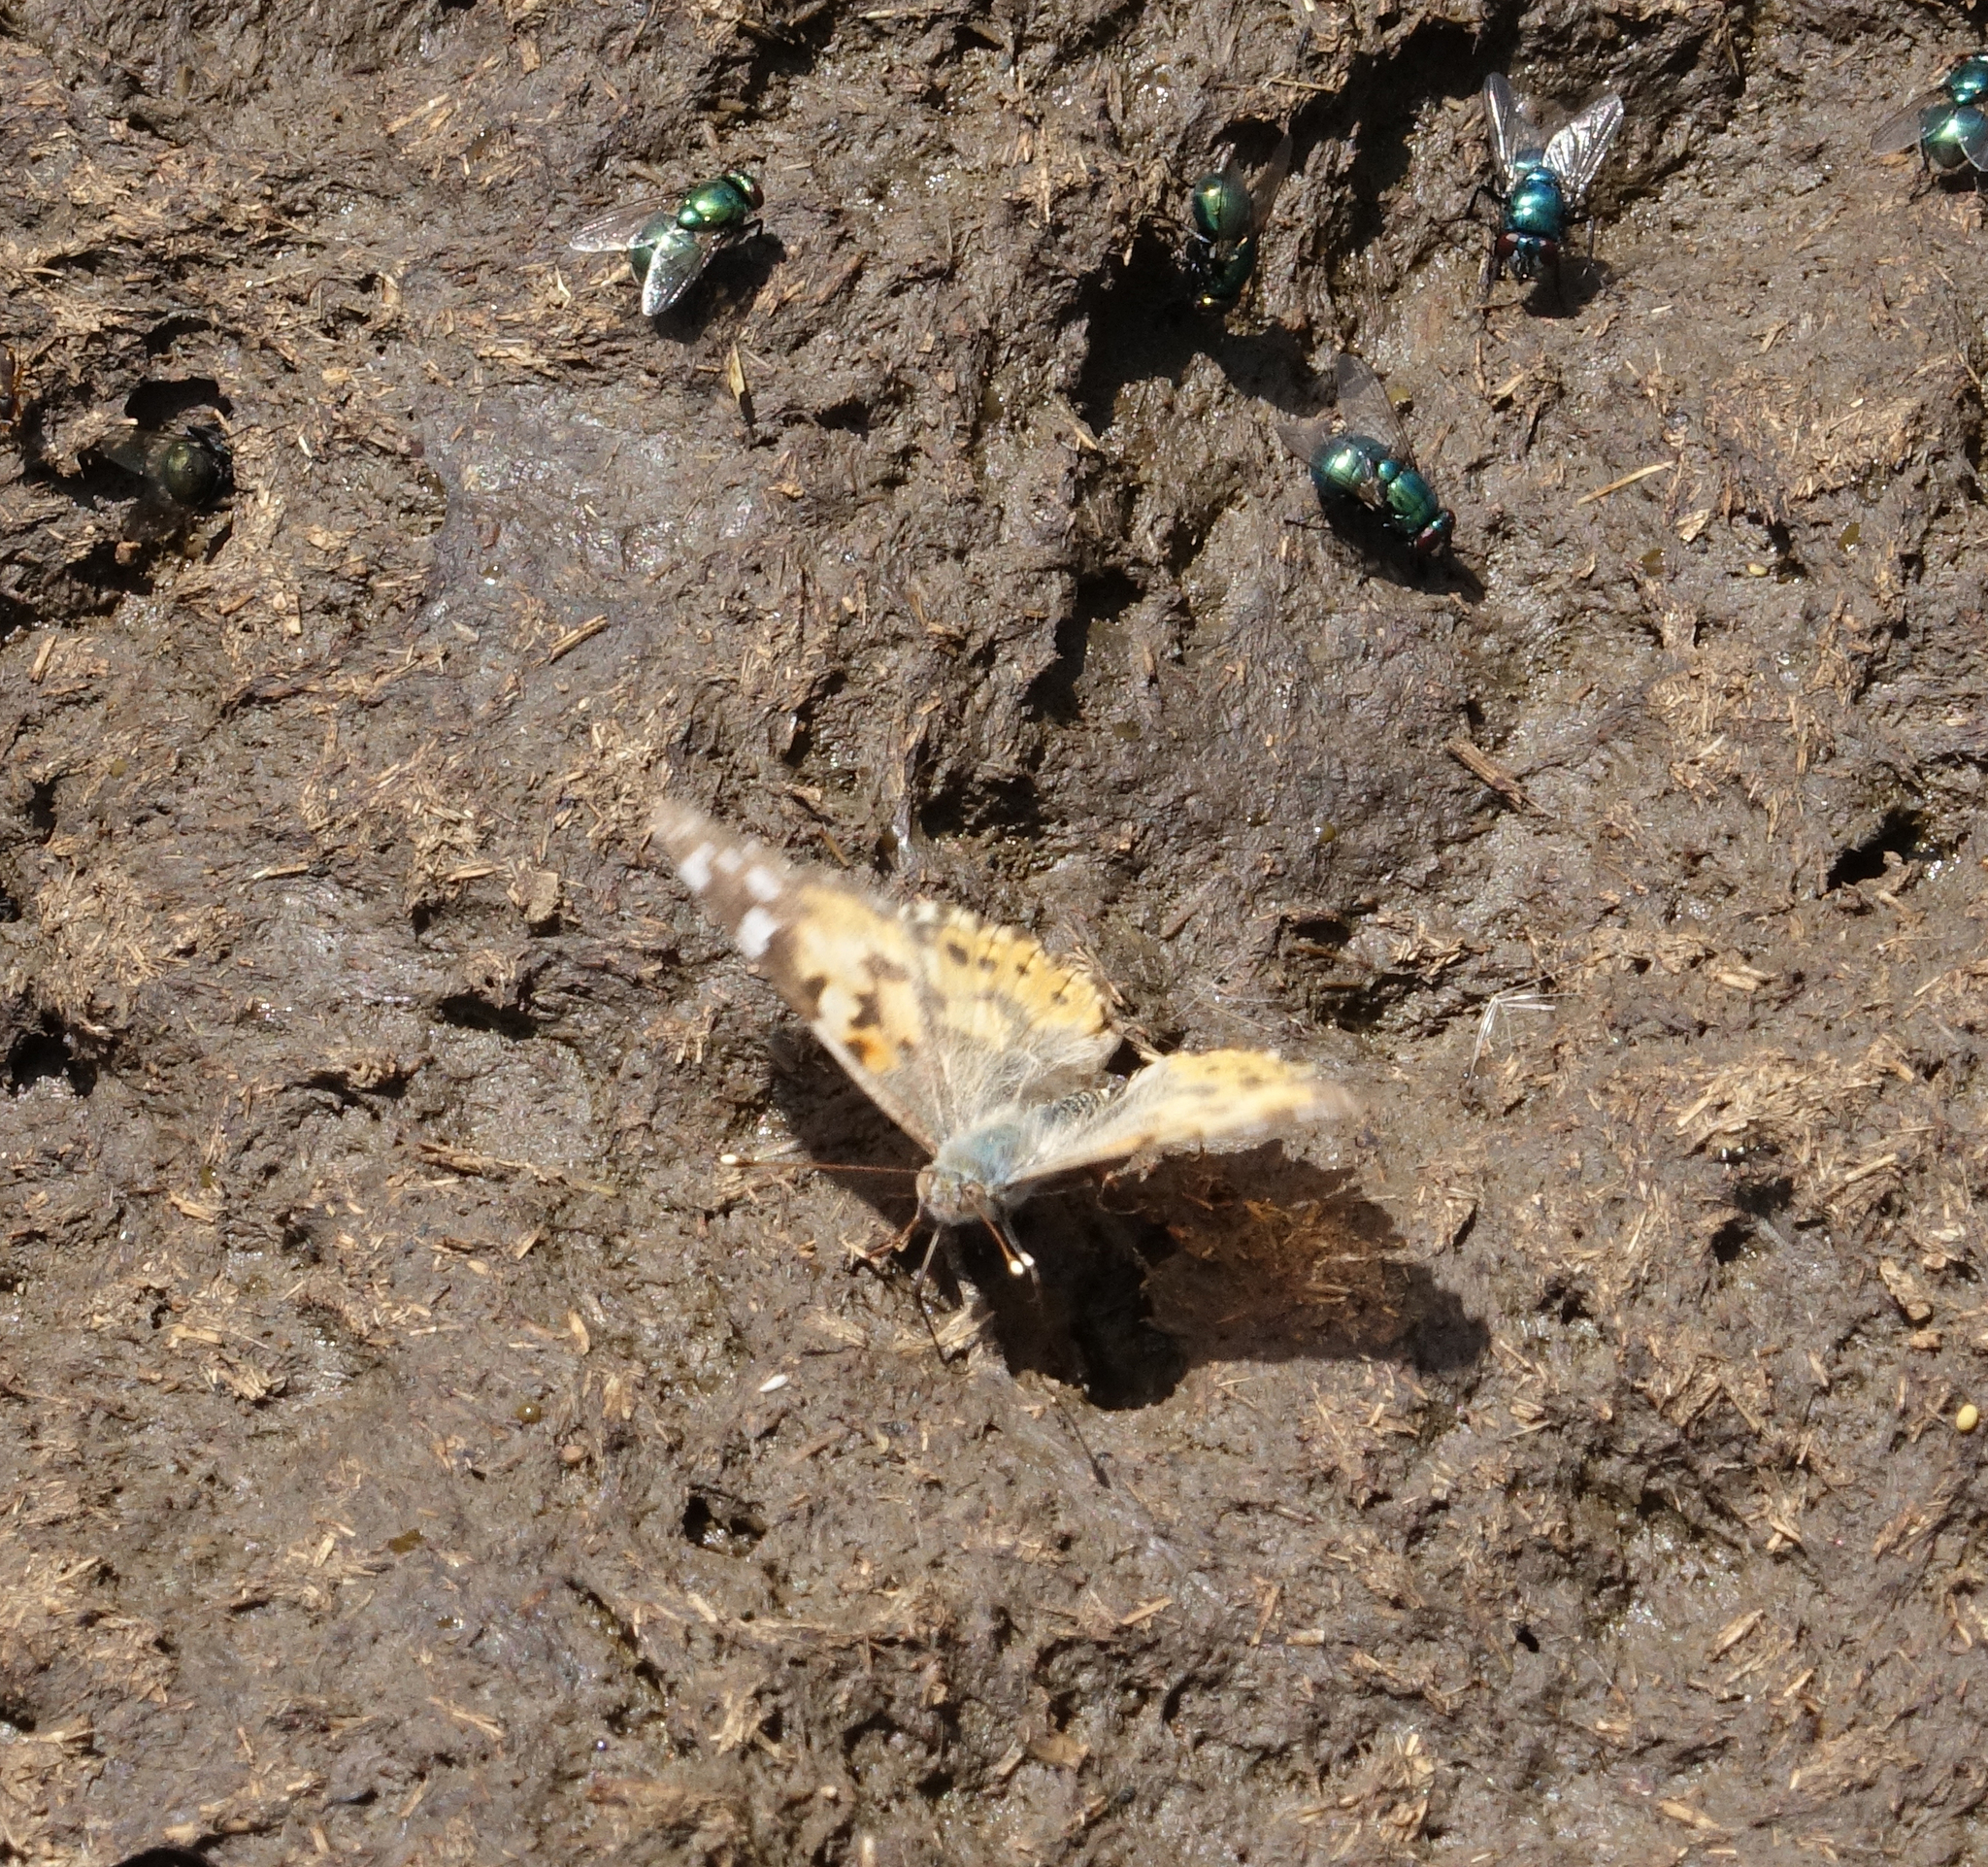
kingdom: Animalia
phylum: Arthropoda
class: Insecta
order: Lepidoptera
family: Nymphalidae
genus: Vanessa
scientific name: Vanessa cardui
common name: Painted lady
